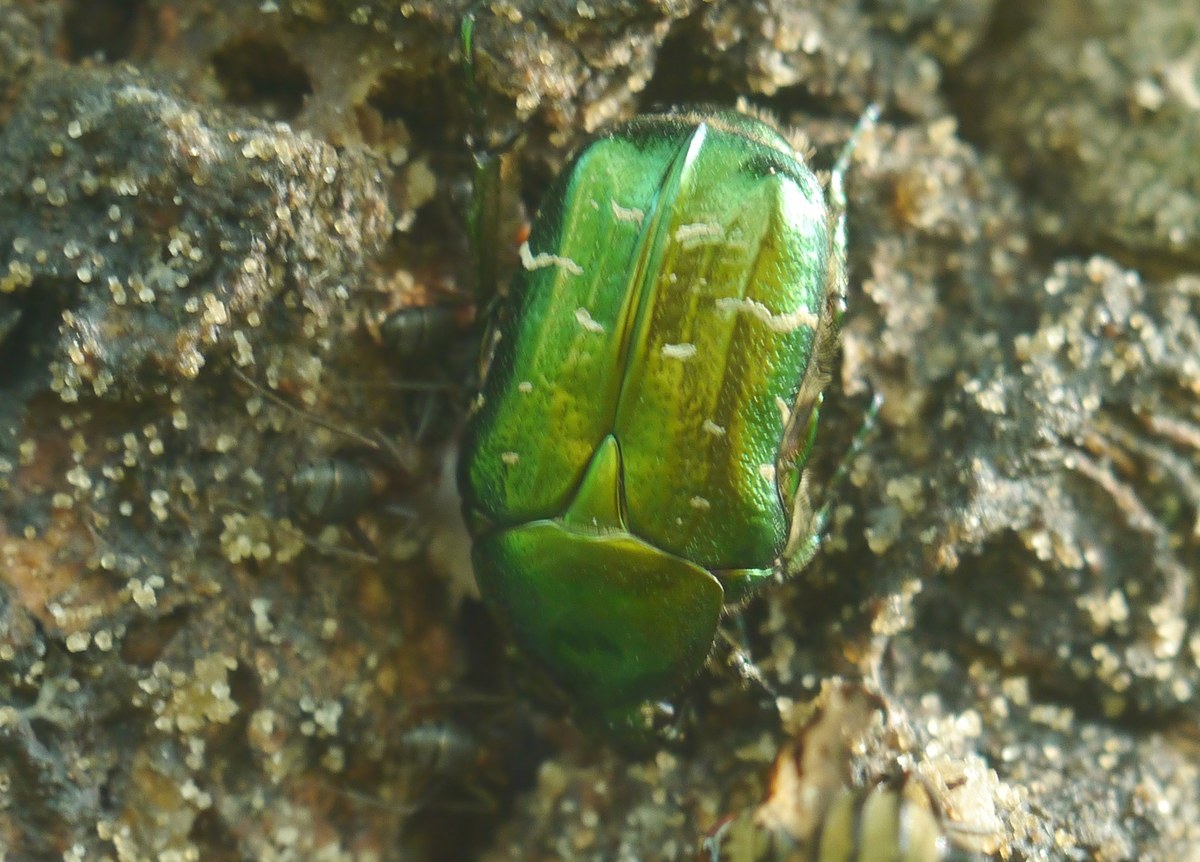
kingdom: Animalia
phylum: Arthropoda
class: Insecta
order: Coleoptera
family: Scarabaeidae
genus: Cetonia
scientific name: Cetonia aurata
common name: Rose chafer
